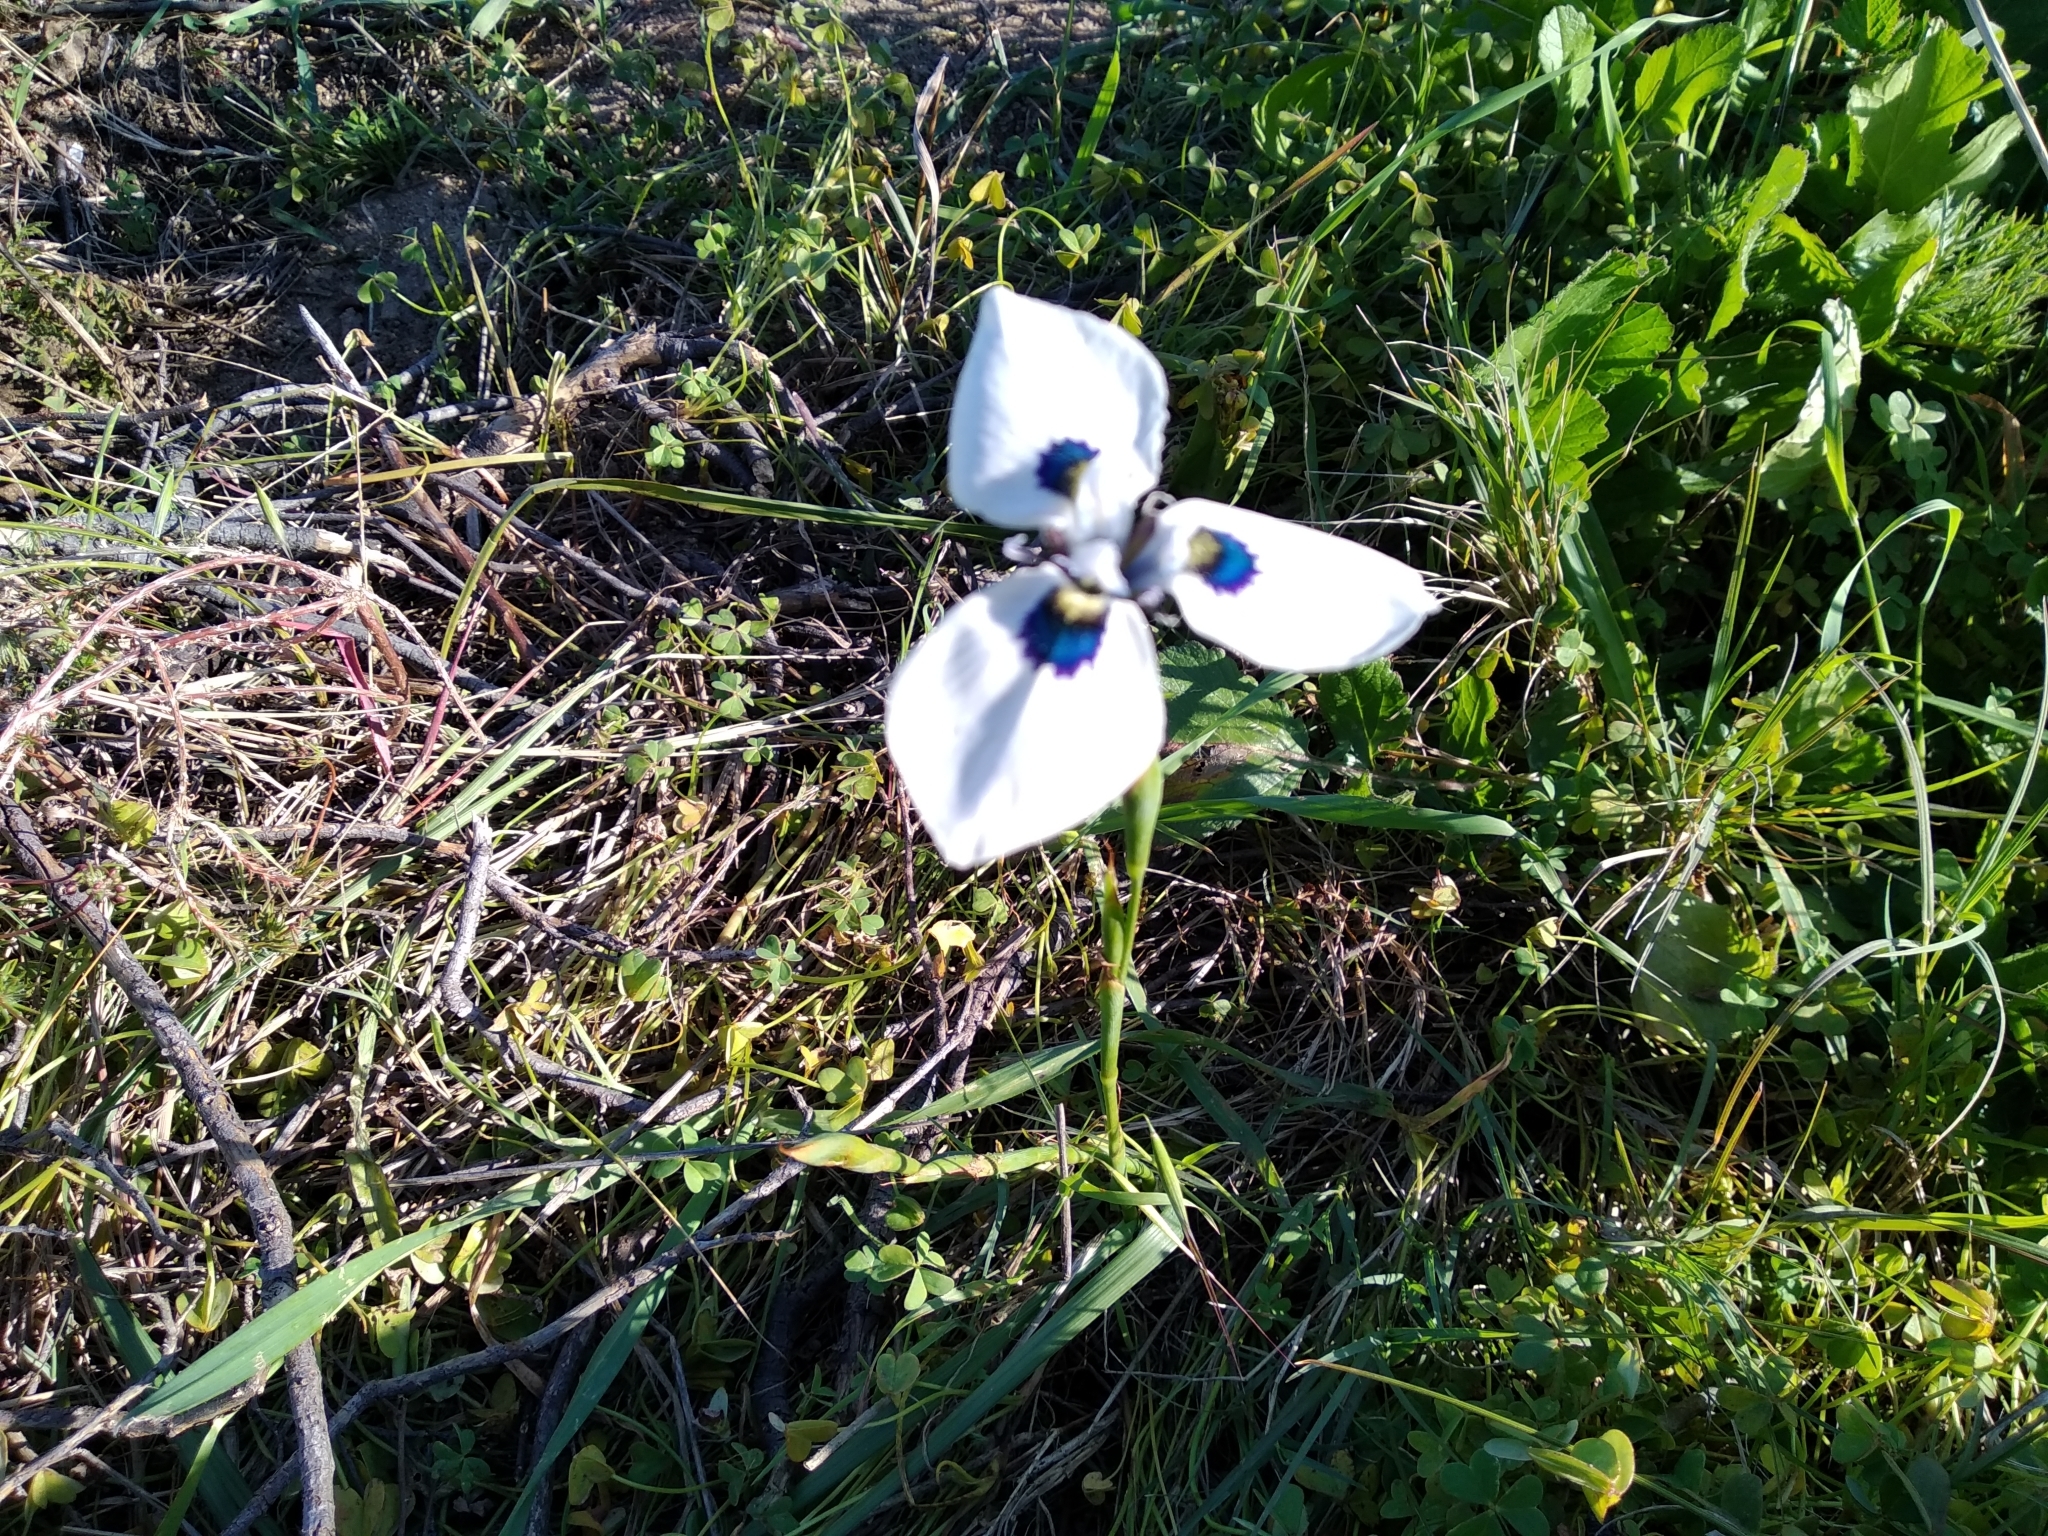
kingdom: Plantae
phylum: Tracheophyta
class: Liliopsida
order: Asparagales
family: Iridaceae
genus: Moraea
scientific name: Moraea aristata
